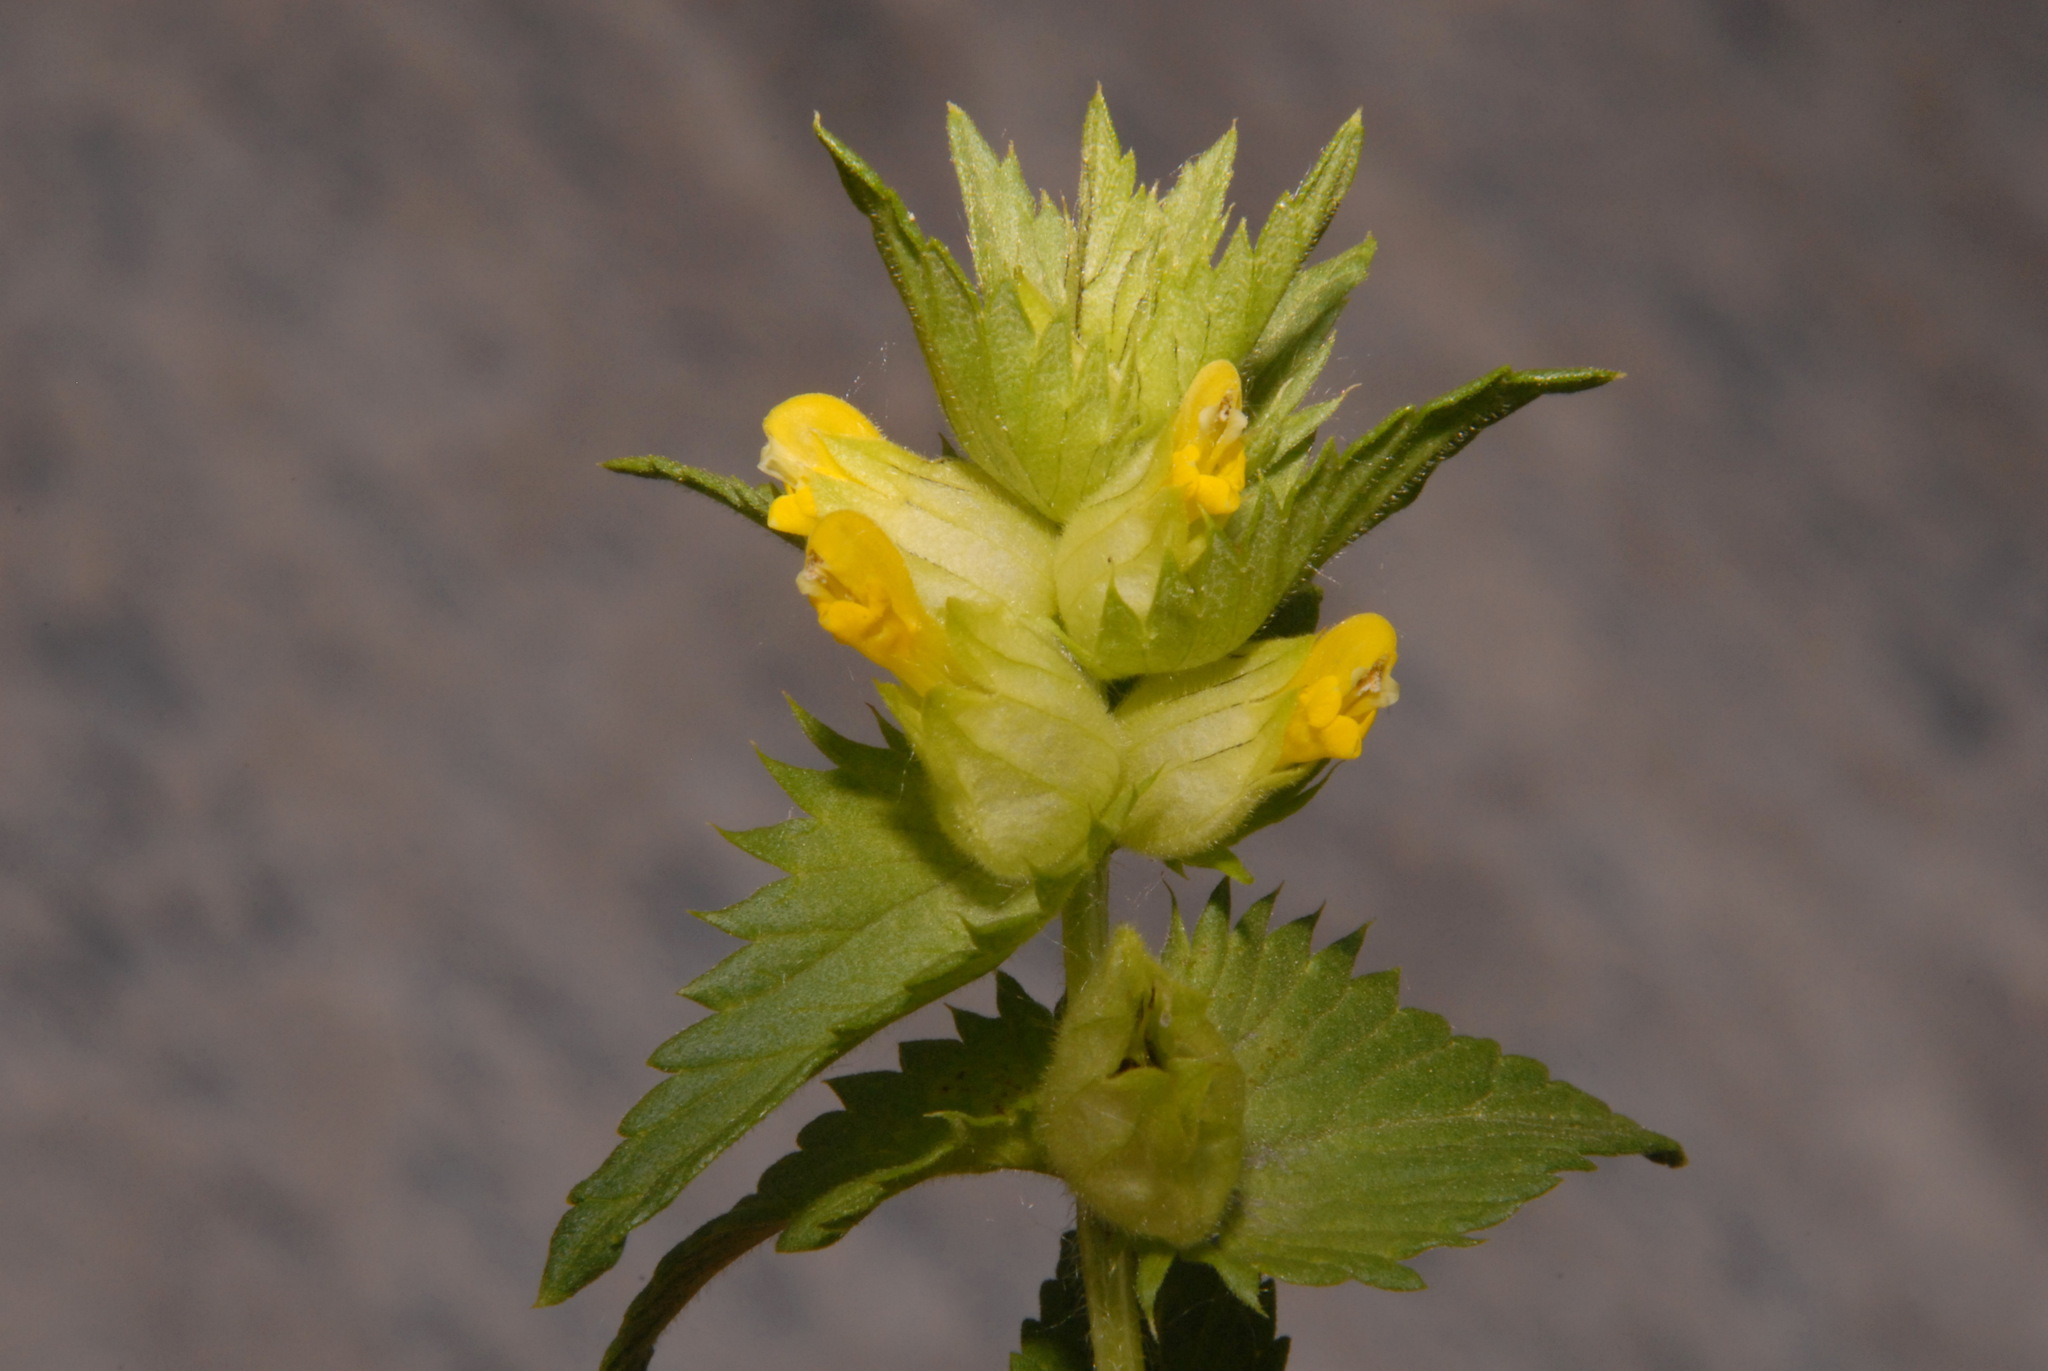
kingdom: Plantae
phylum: Tracheophyta
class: Magnoliopsida
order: Lamiales
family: Orobanchaceae
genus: Rhinanthus
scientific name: Rhinanthus minor
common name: Yellow-rattle
